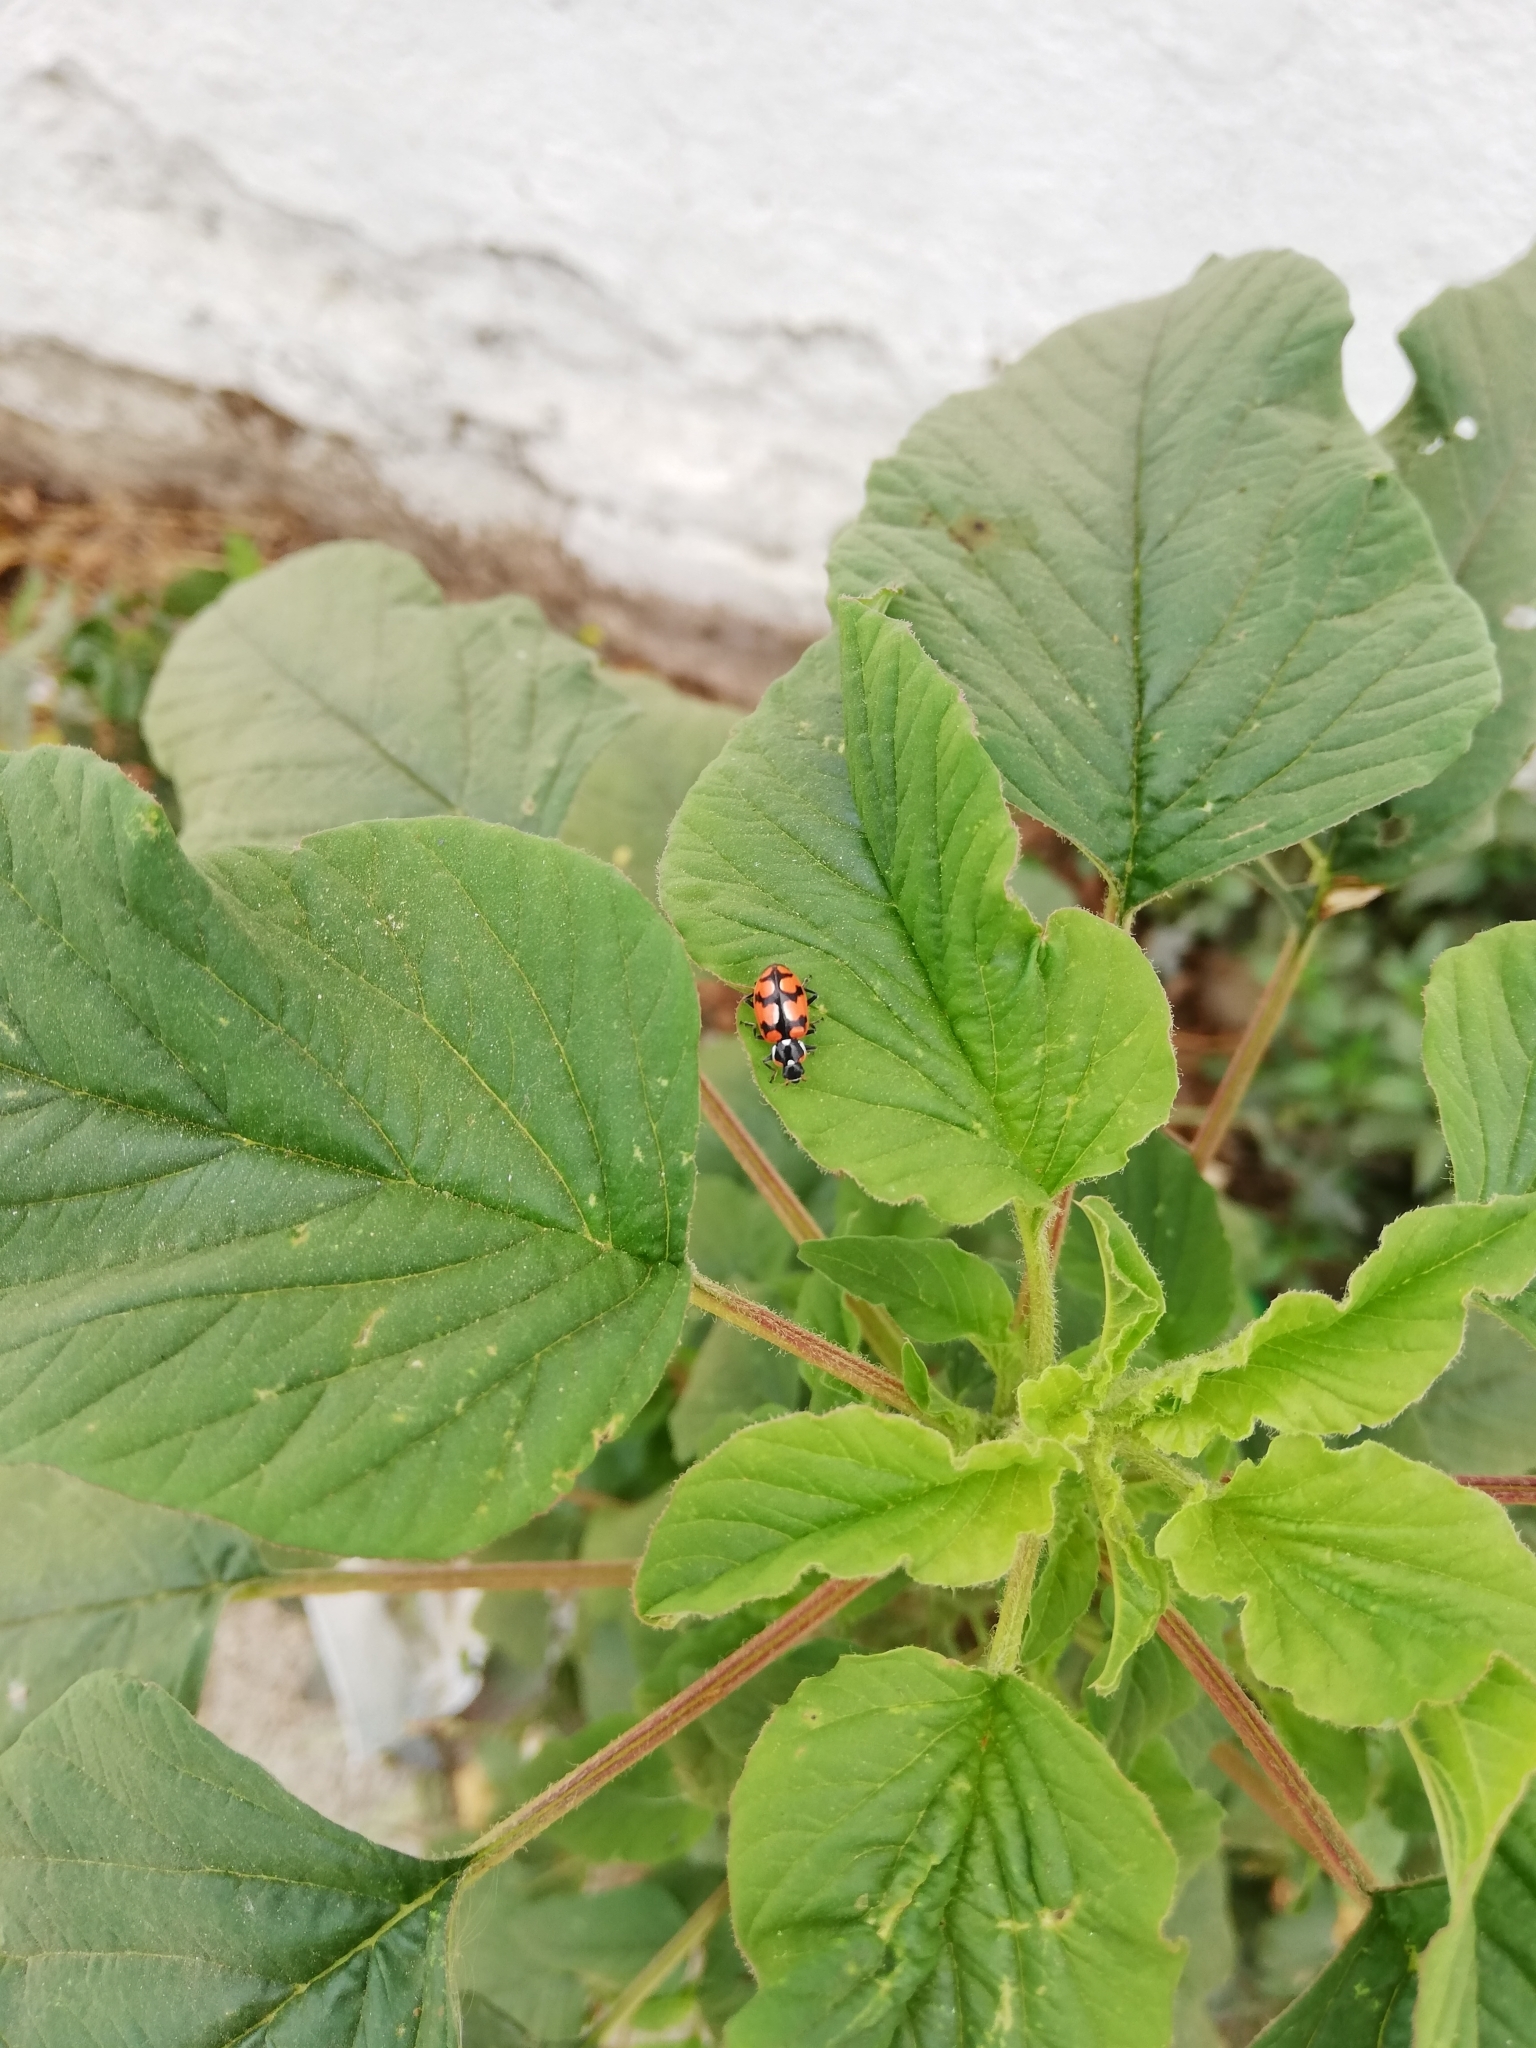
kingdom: Animalia
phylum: Arthropoda
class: Insecta
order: Coleoptera
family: Coccinellidae
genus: Eriopis
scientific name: Eriopis chilensis
